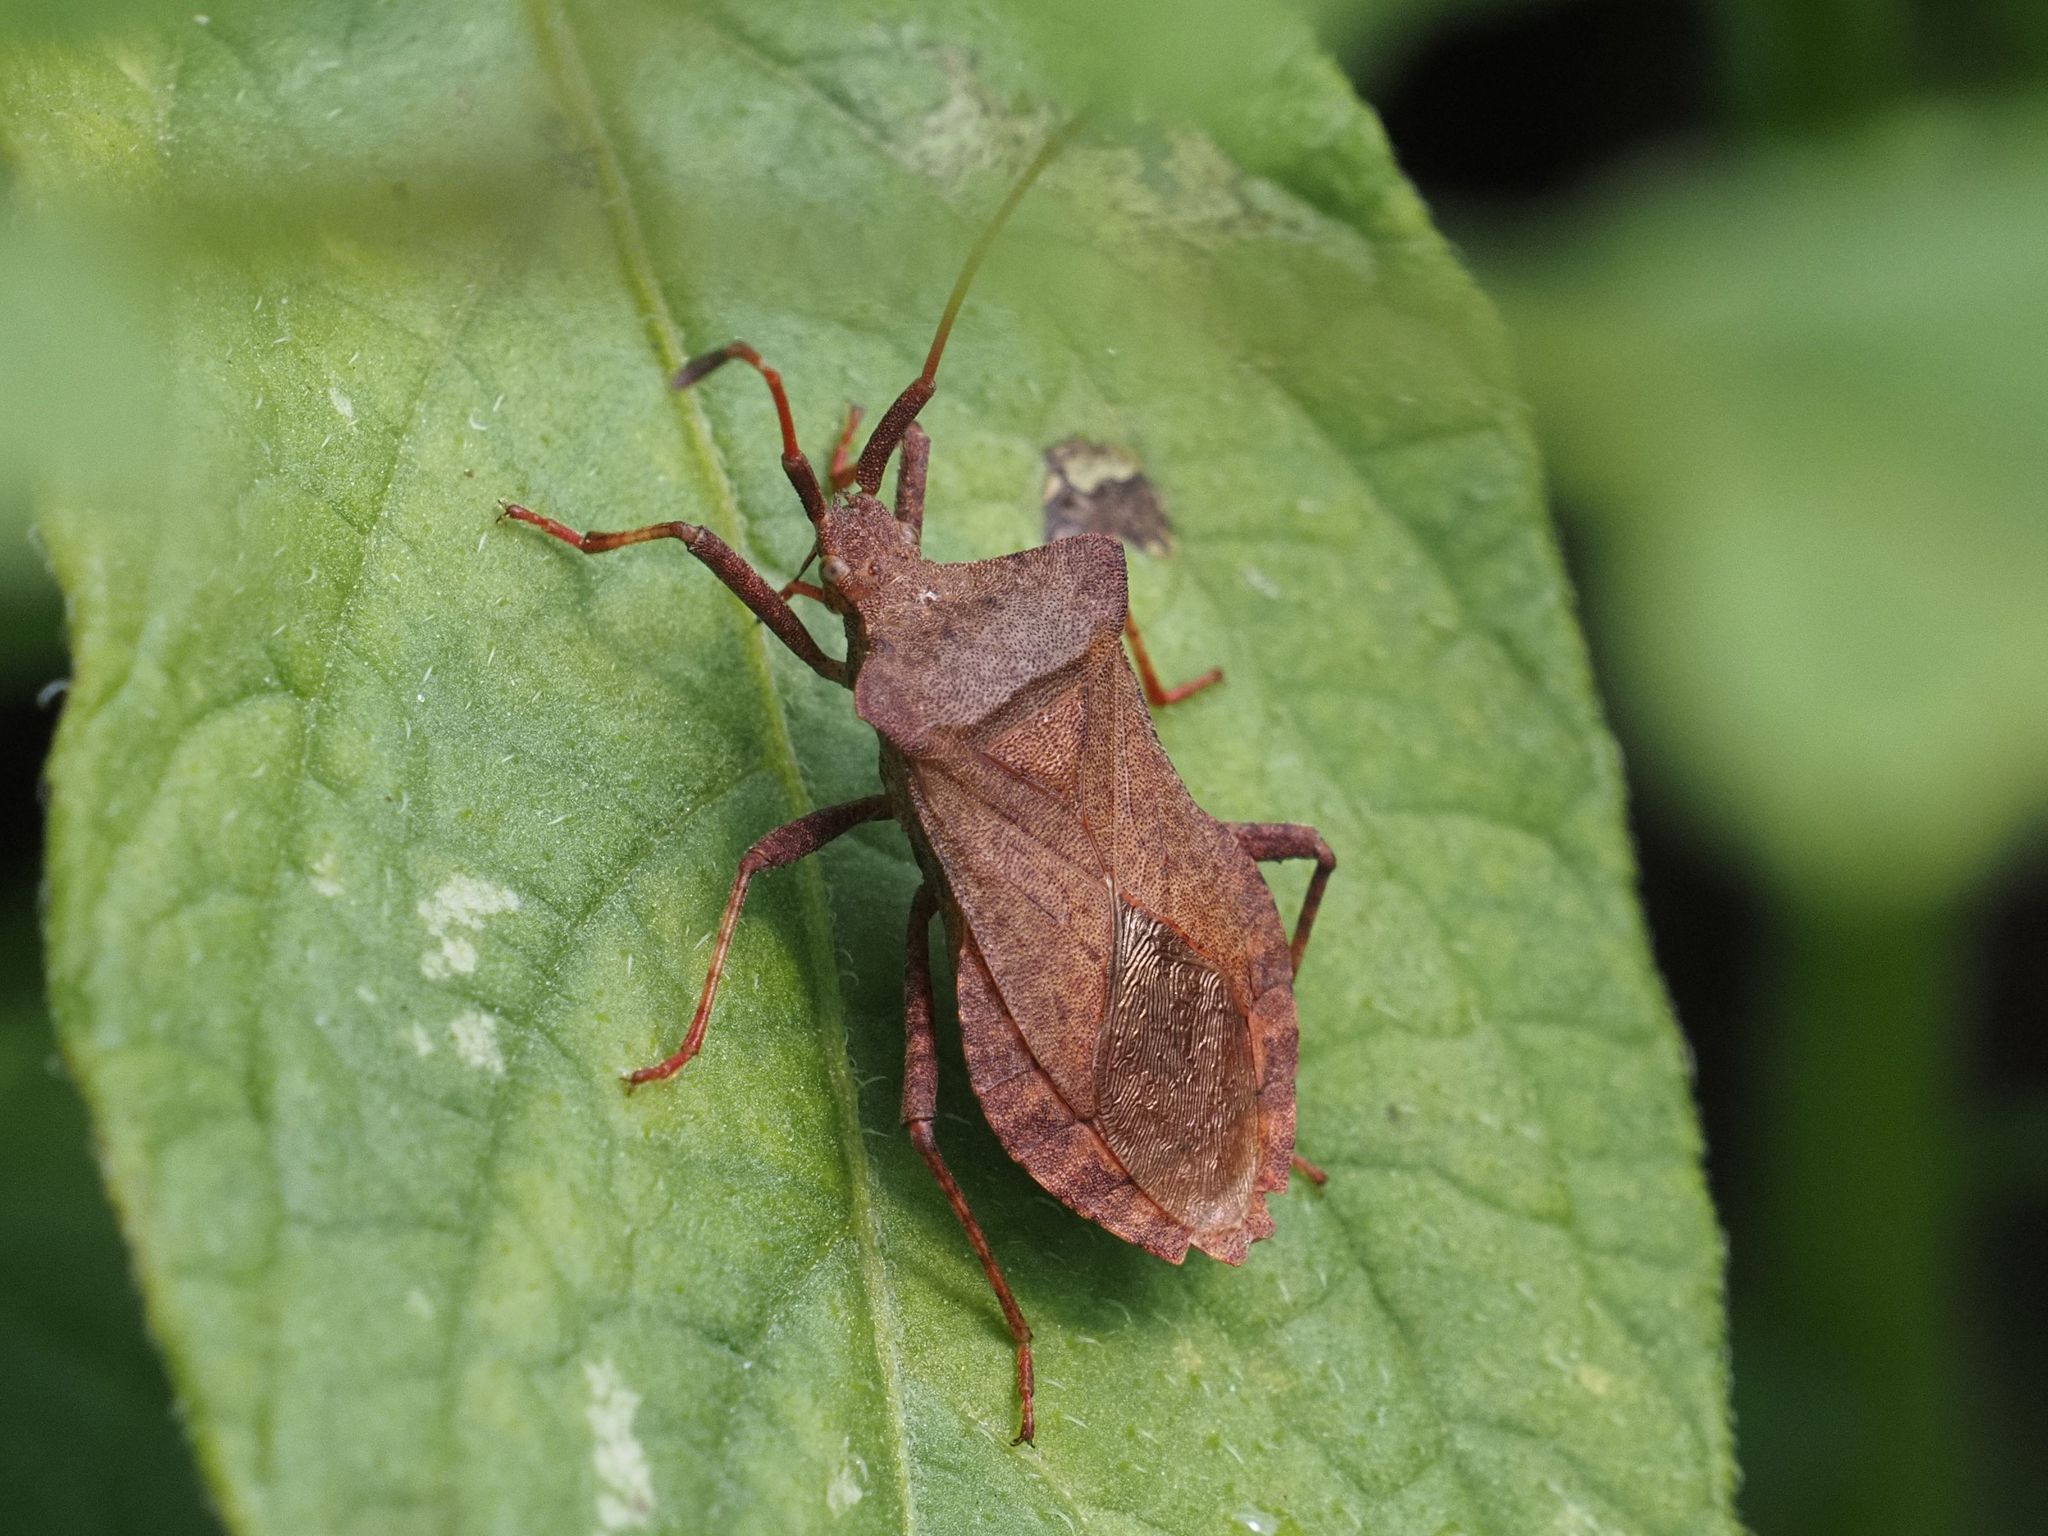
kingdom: Animalia
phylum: Arthropoda
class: Insecta
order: Hemiptera
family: Coreidae
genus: Coreus
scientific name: Coreus marginatus
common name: Dock bug
